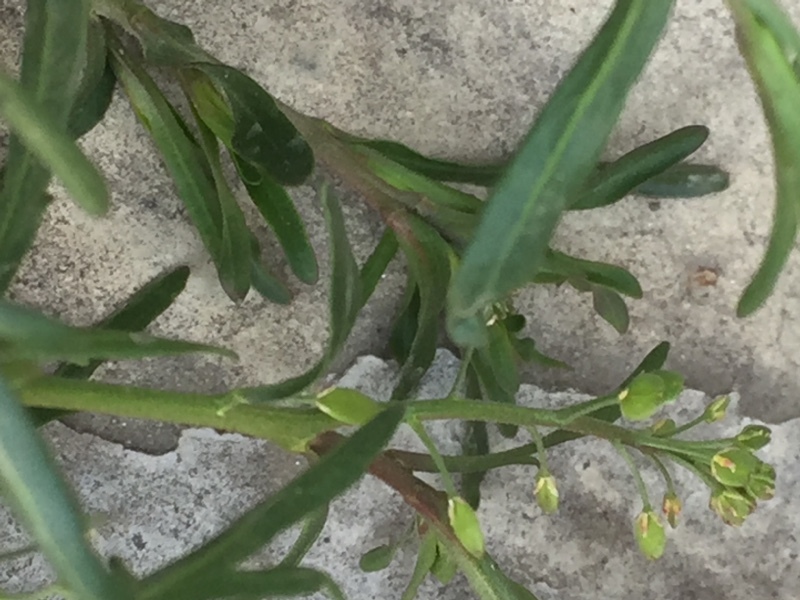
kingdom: Plantae
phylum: Tracheophyta
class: Magnoliopsida
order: Brassicales
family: Brassicaceae
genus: Lepidium
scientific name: Lepidium ruderale
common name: Narrow-leaved pepperwort
